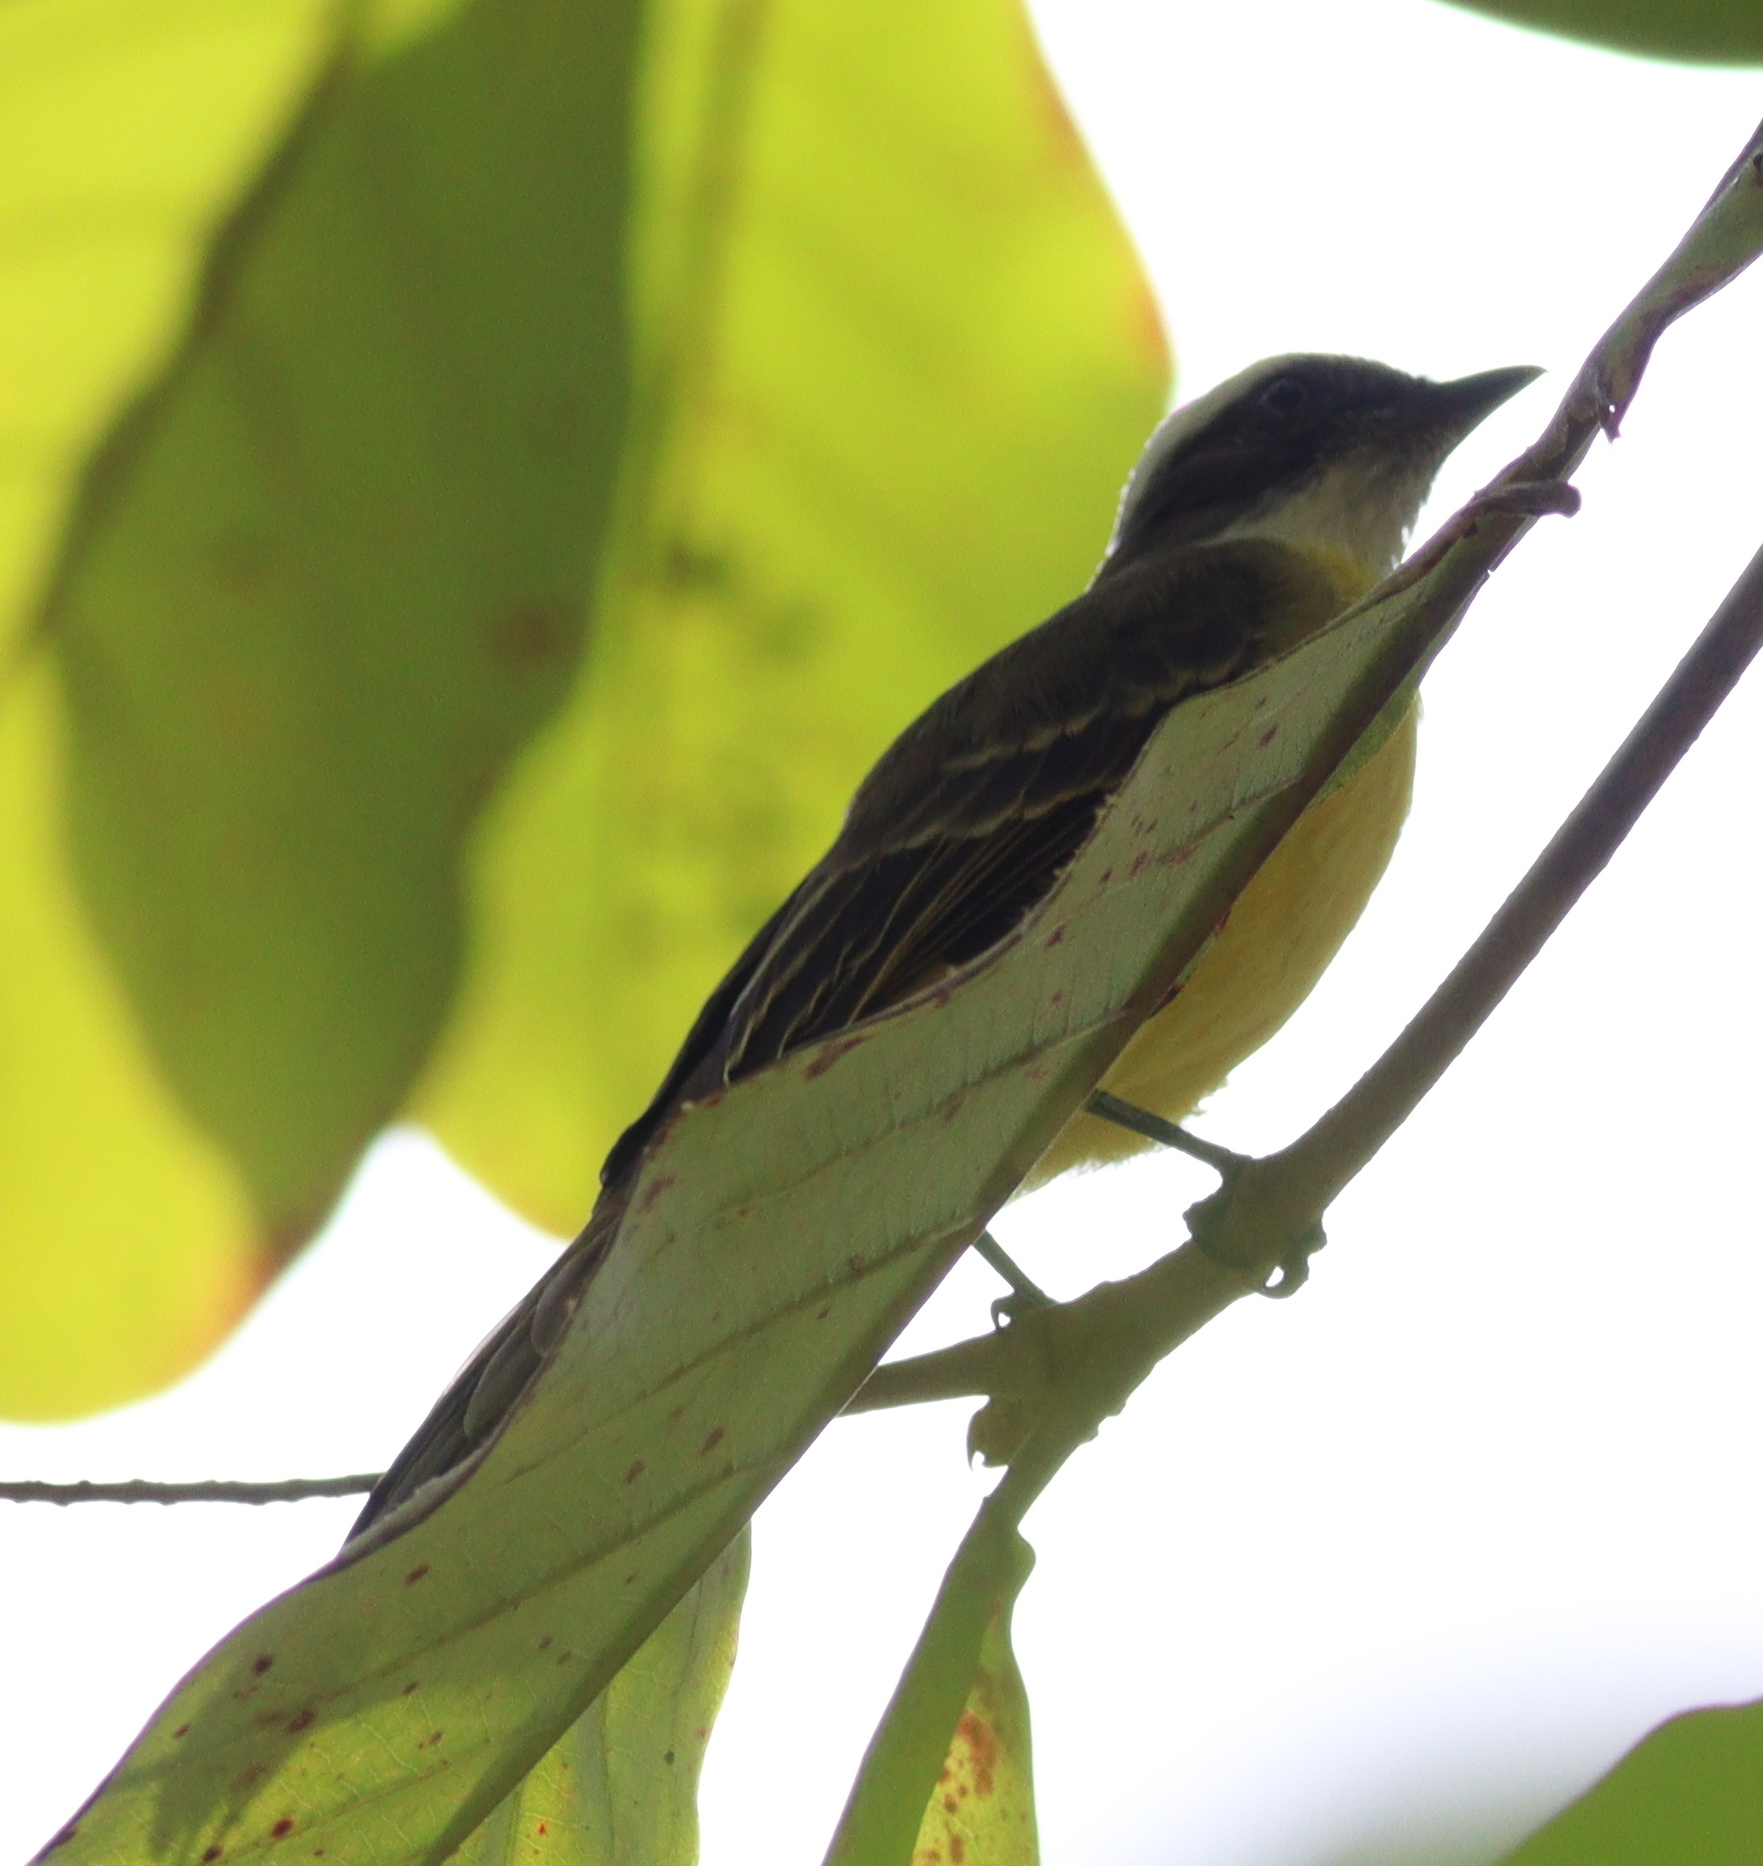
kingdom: Animalia
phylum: Chordata
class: Aves
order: Passeriformes
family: Tyrannidae
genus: Myiozetetes
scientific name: Myiozetetes similis
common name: Social flycatcher
